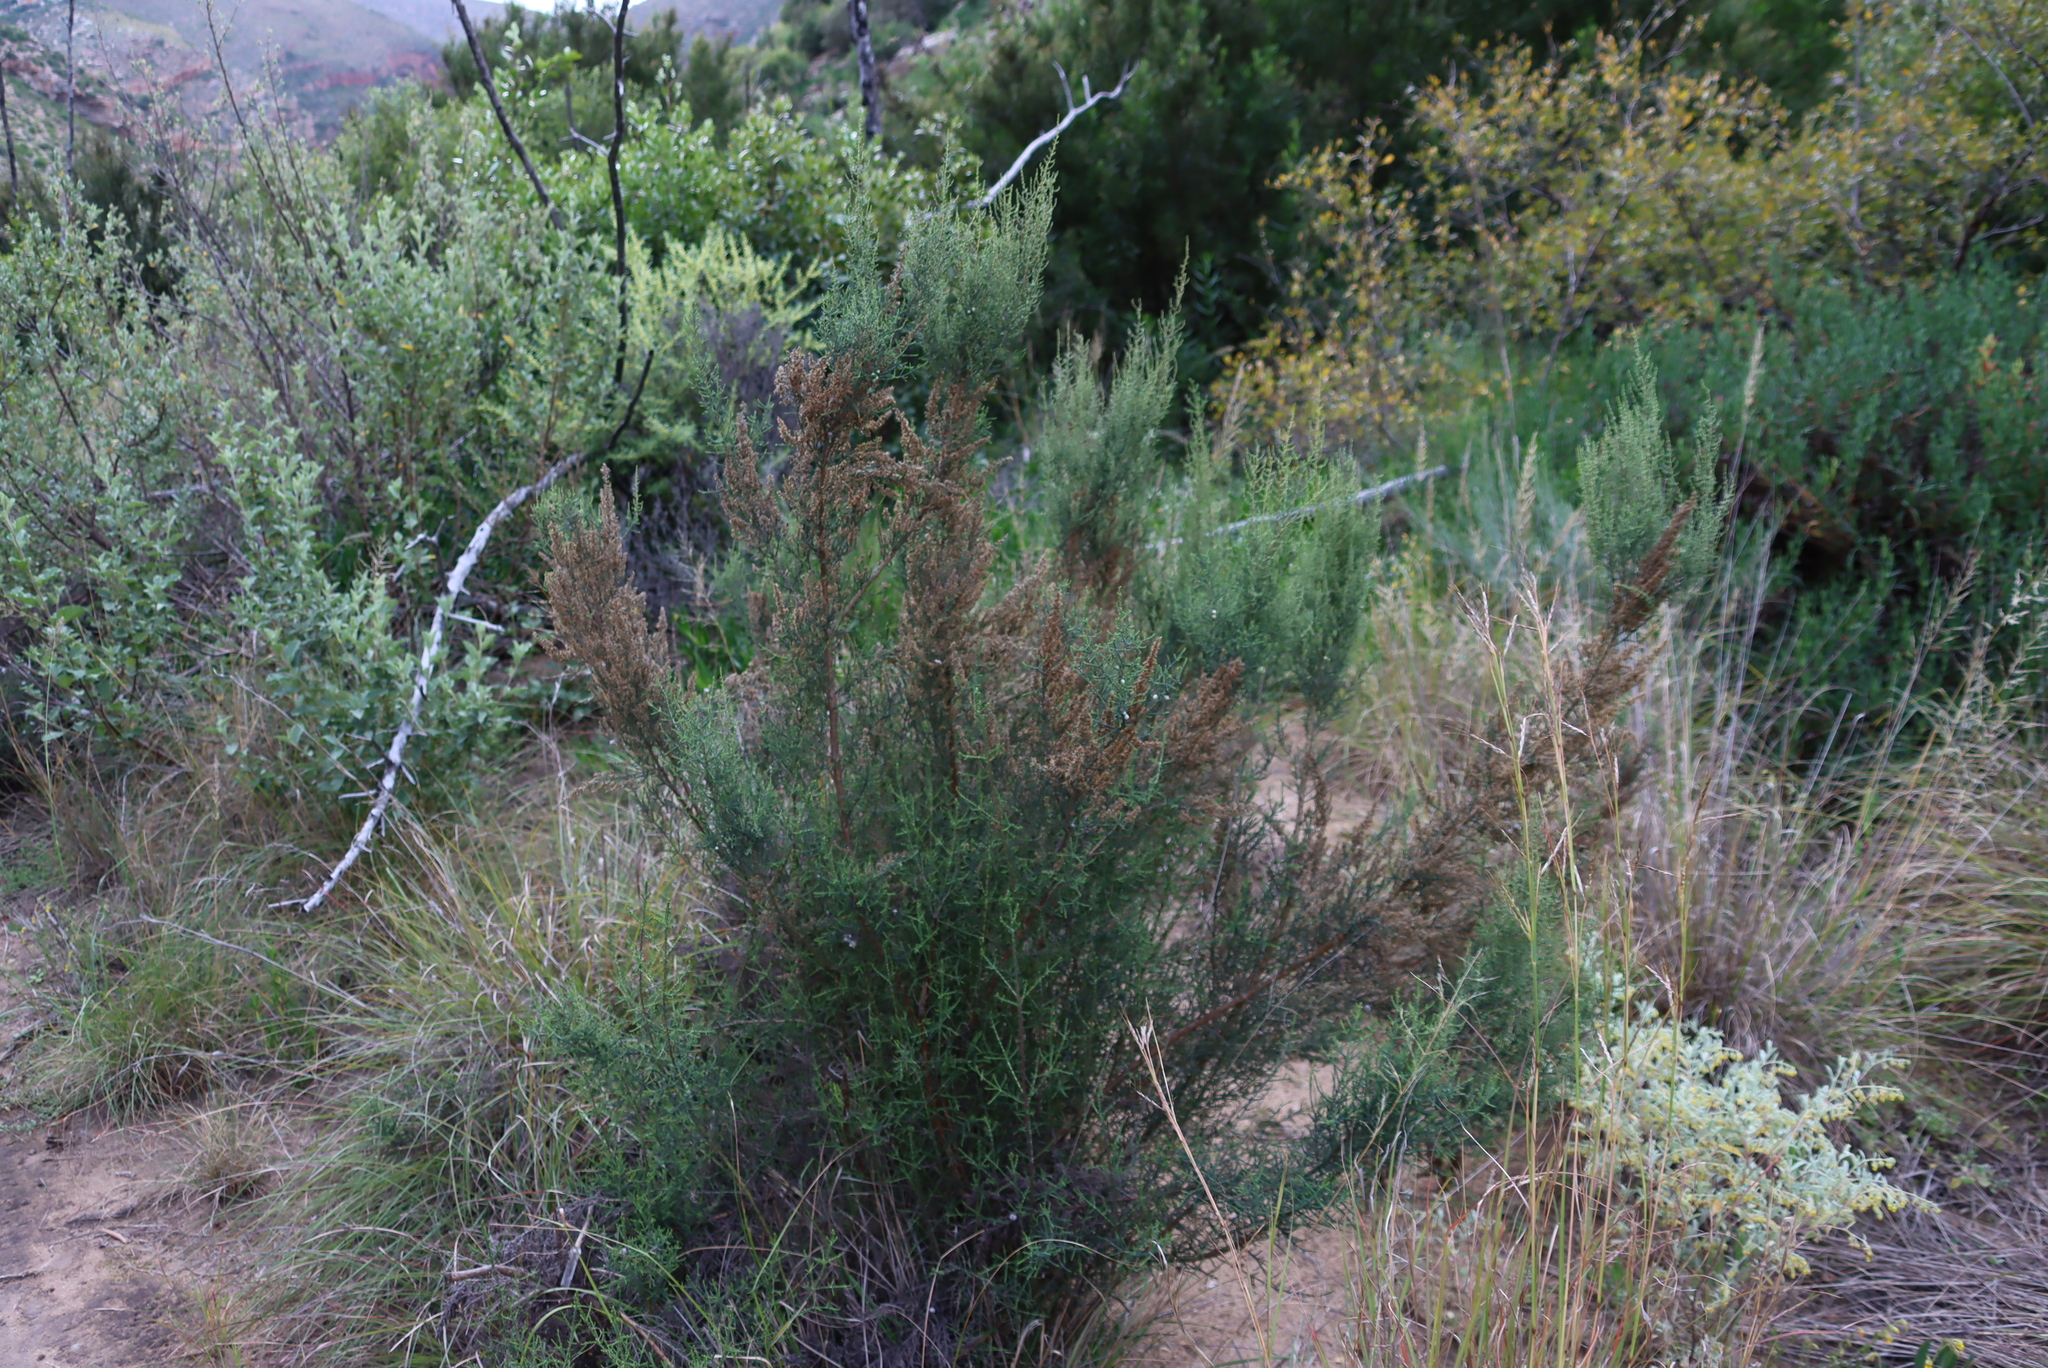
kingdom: Plantae
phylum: Tracheophyta
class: Magnoliopsida
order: Asterales
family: Asteraceae
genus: Dicerothamnus
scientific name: Dicerothamnus rhinocerotis
